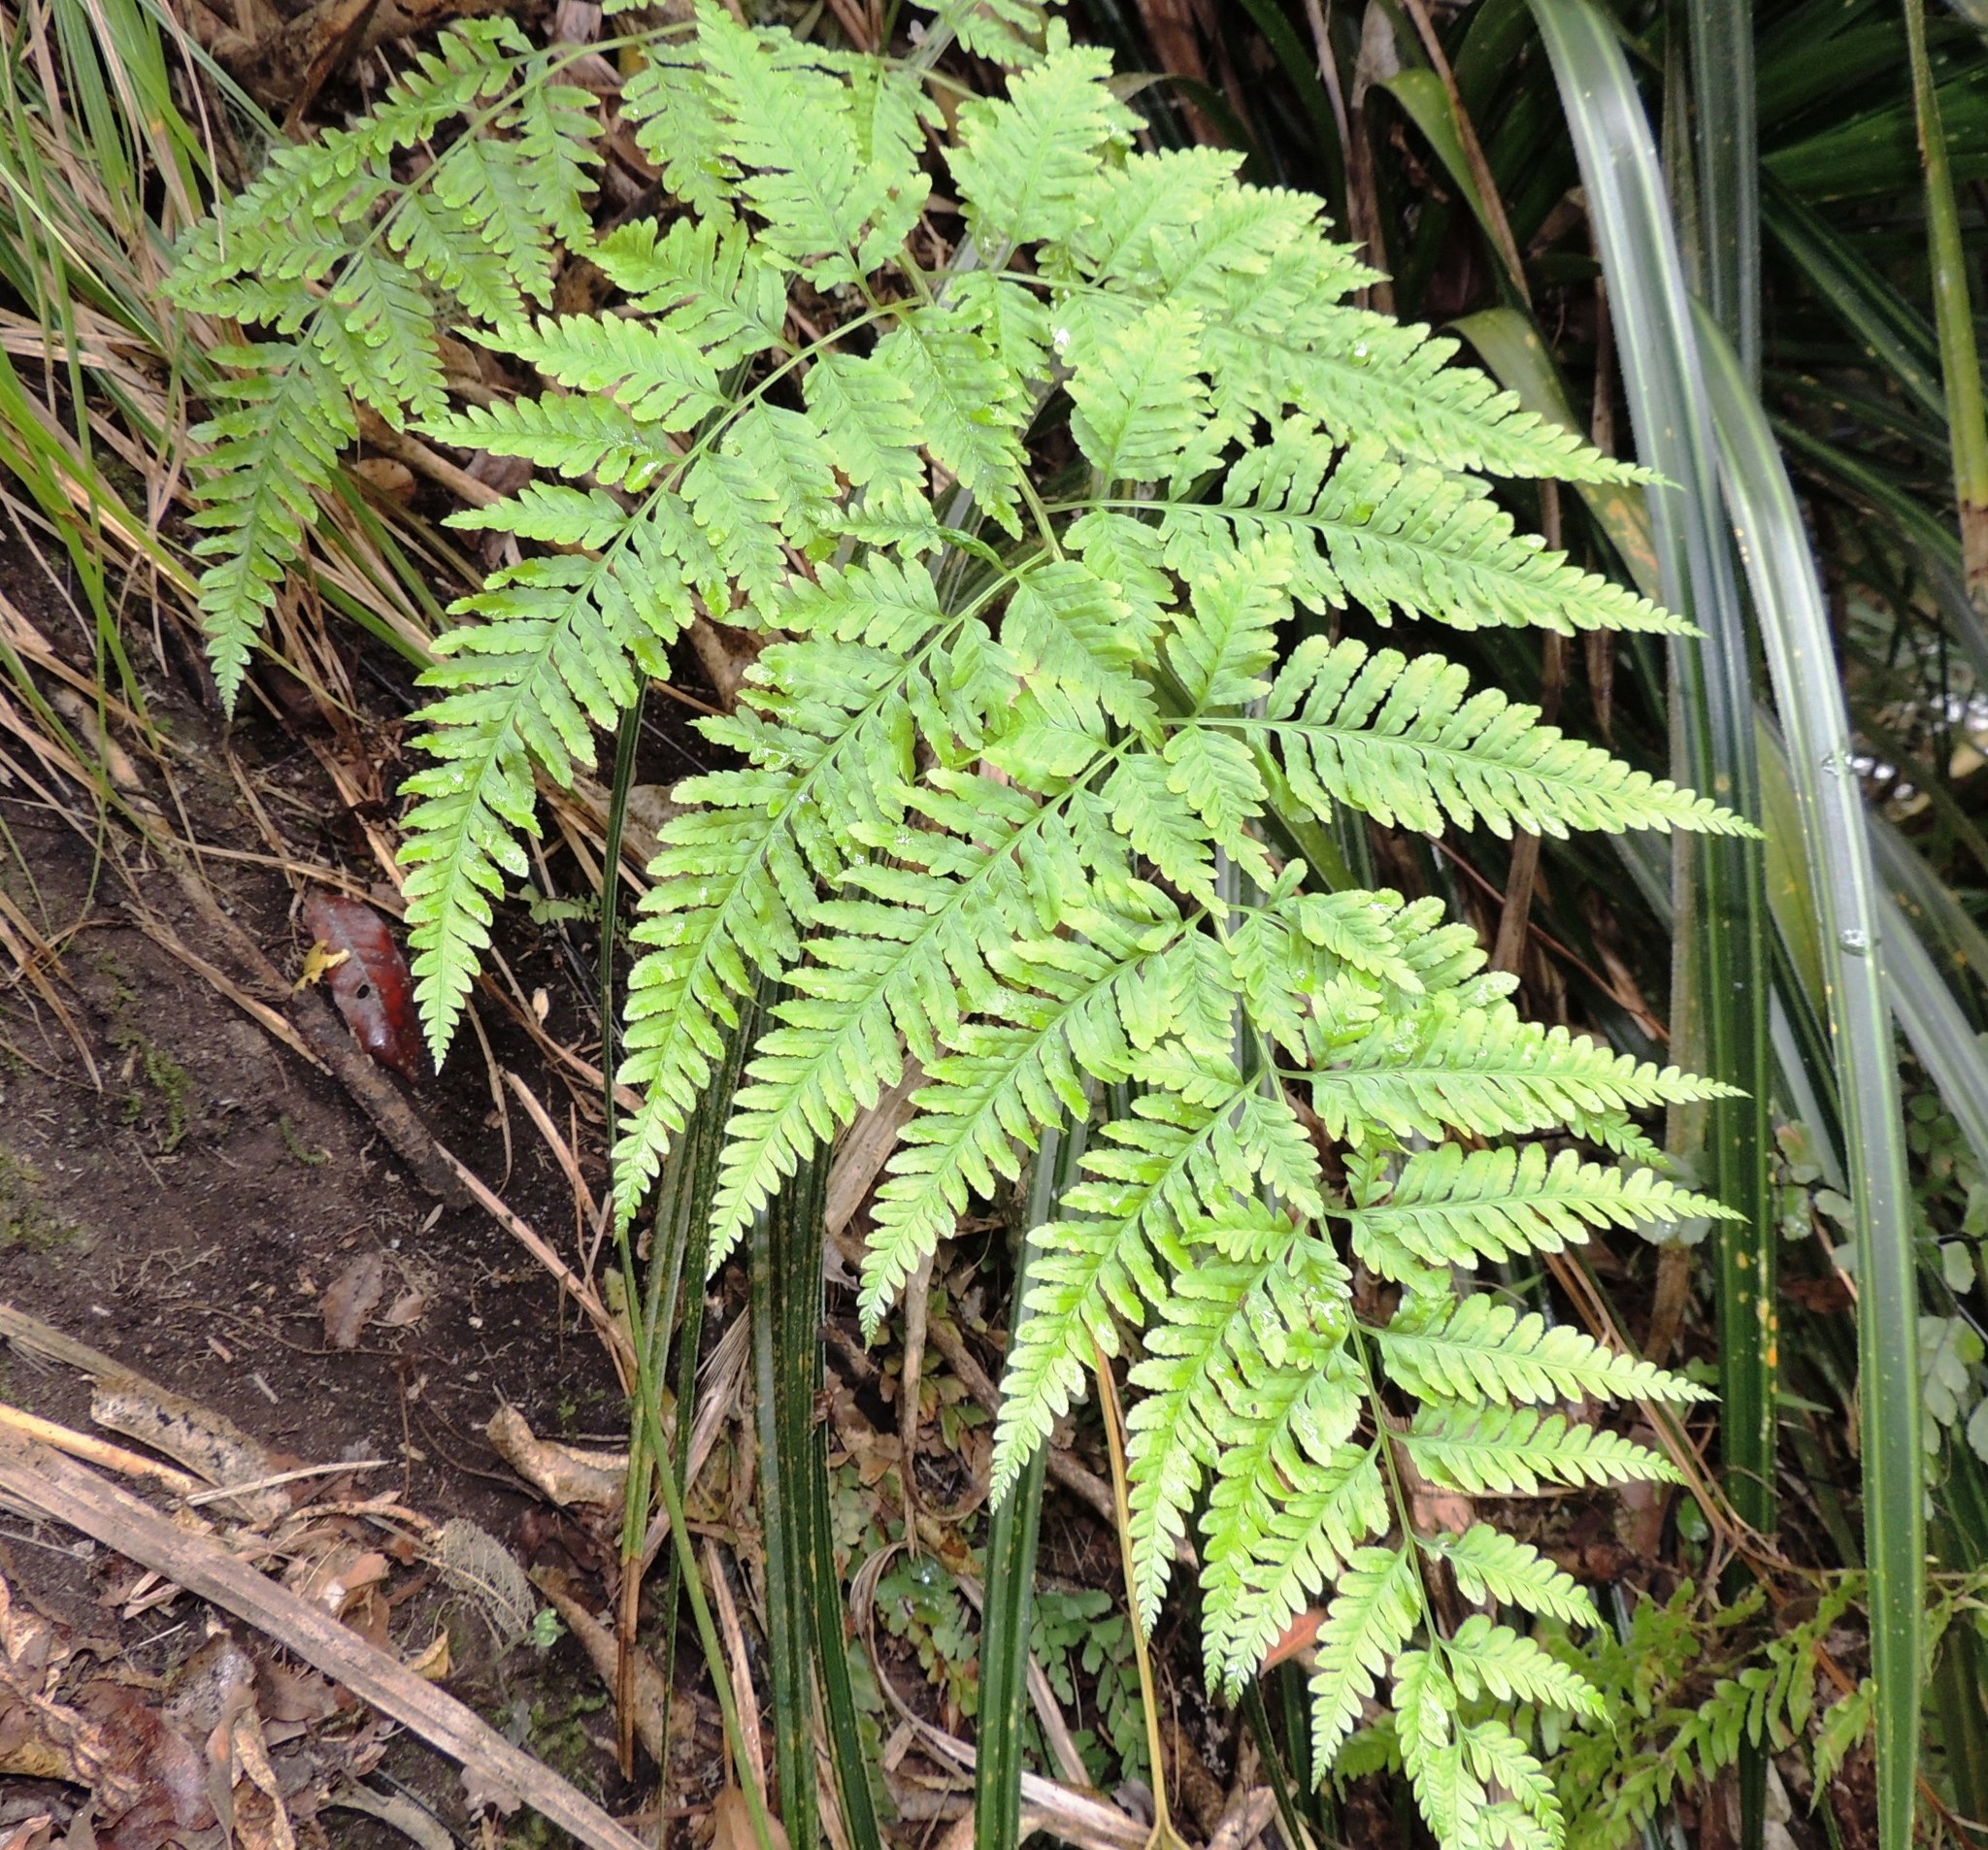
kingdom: Plantae
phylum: Tracheophyta
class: Polypodiopsida
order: Polypodiales
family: Pteridaceae
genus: Pteris
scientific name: Pteris tremula
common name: Australian brake
